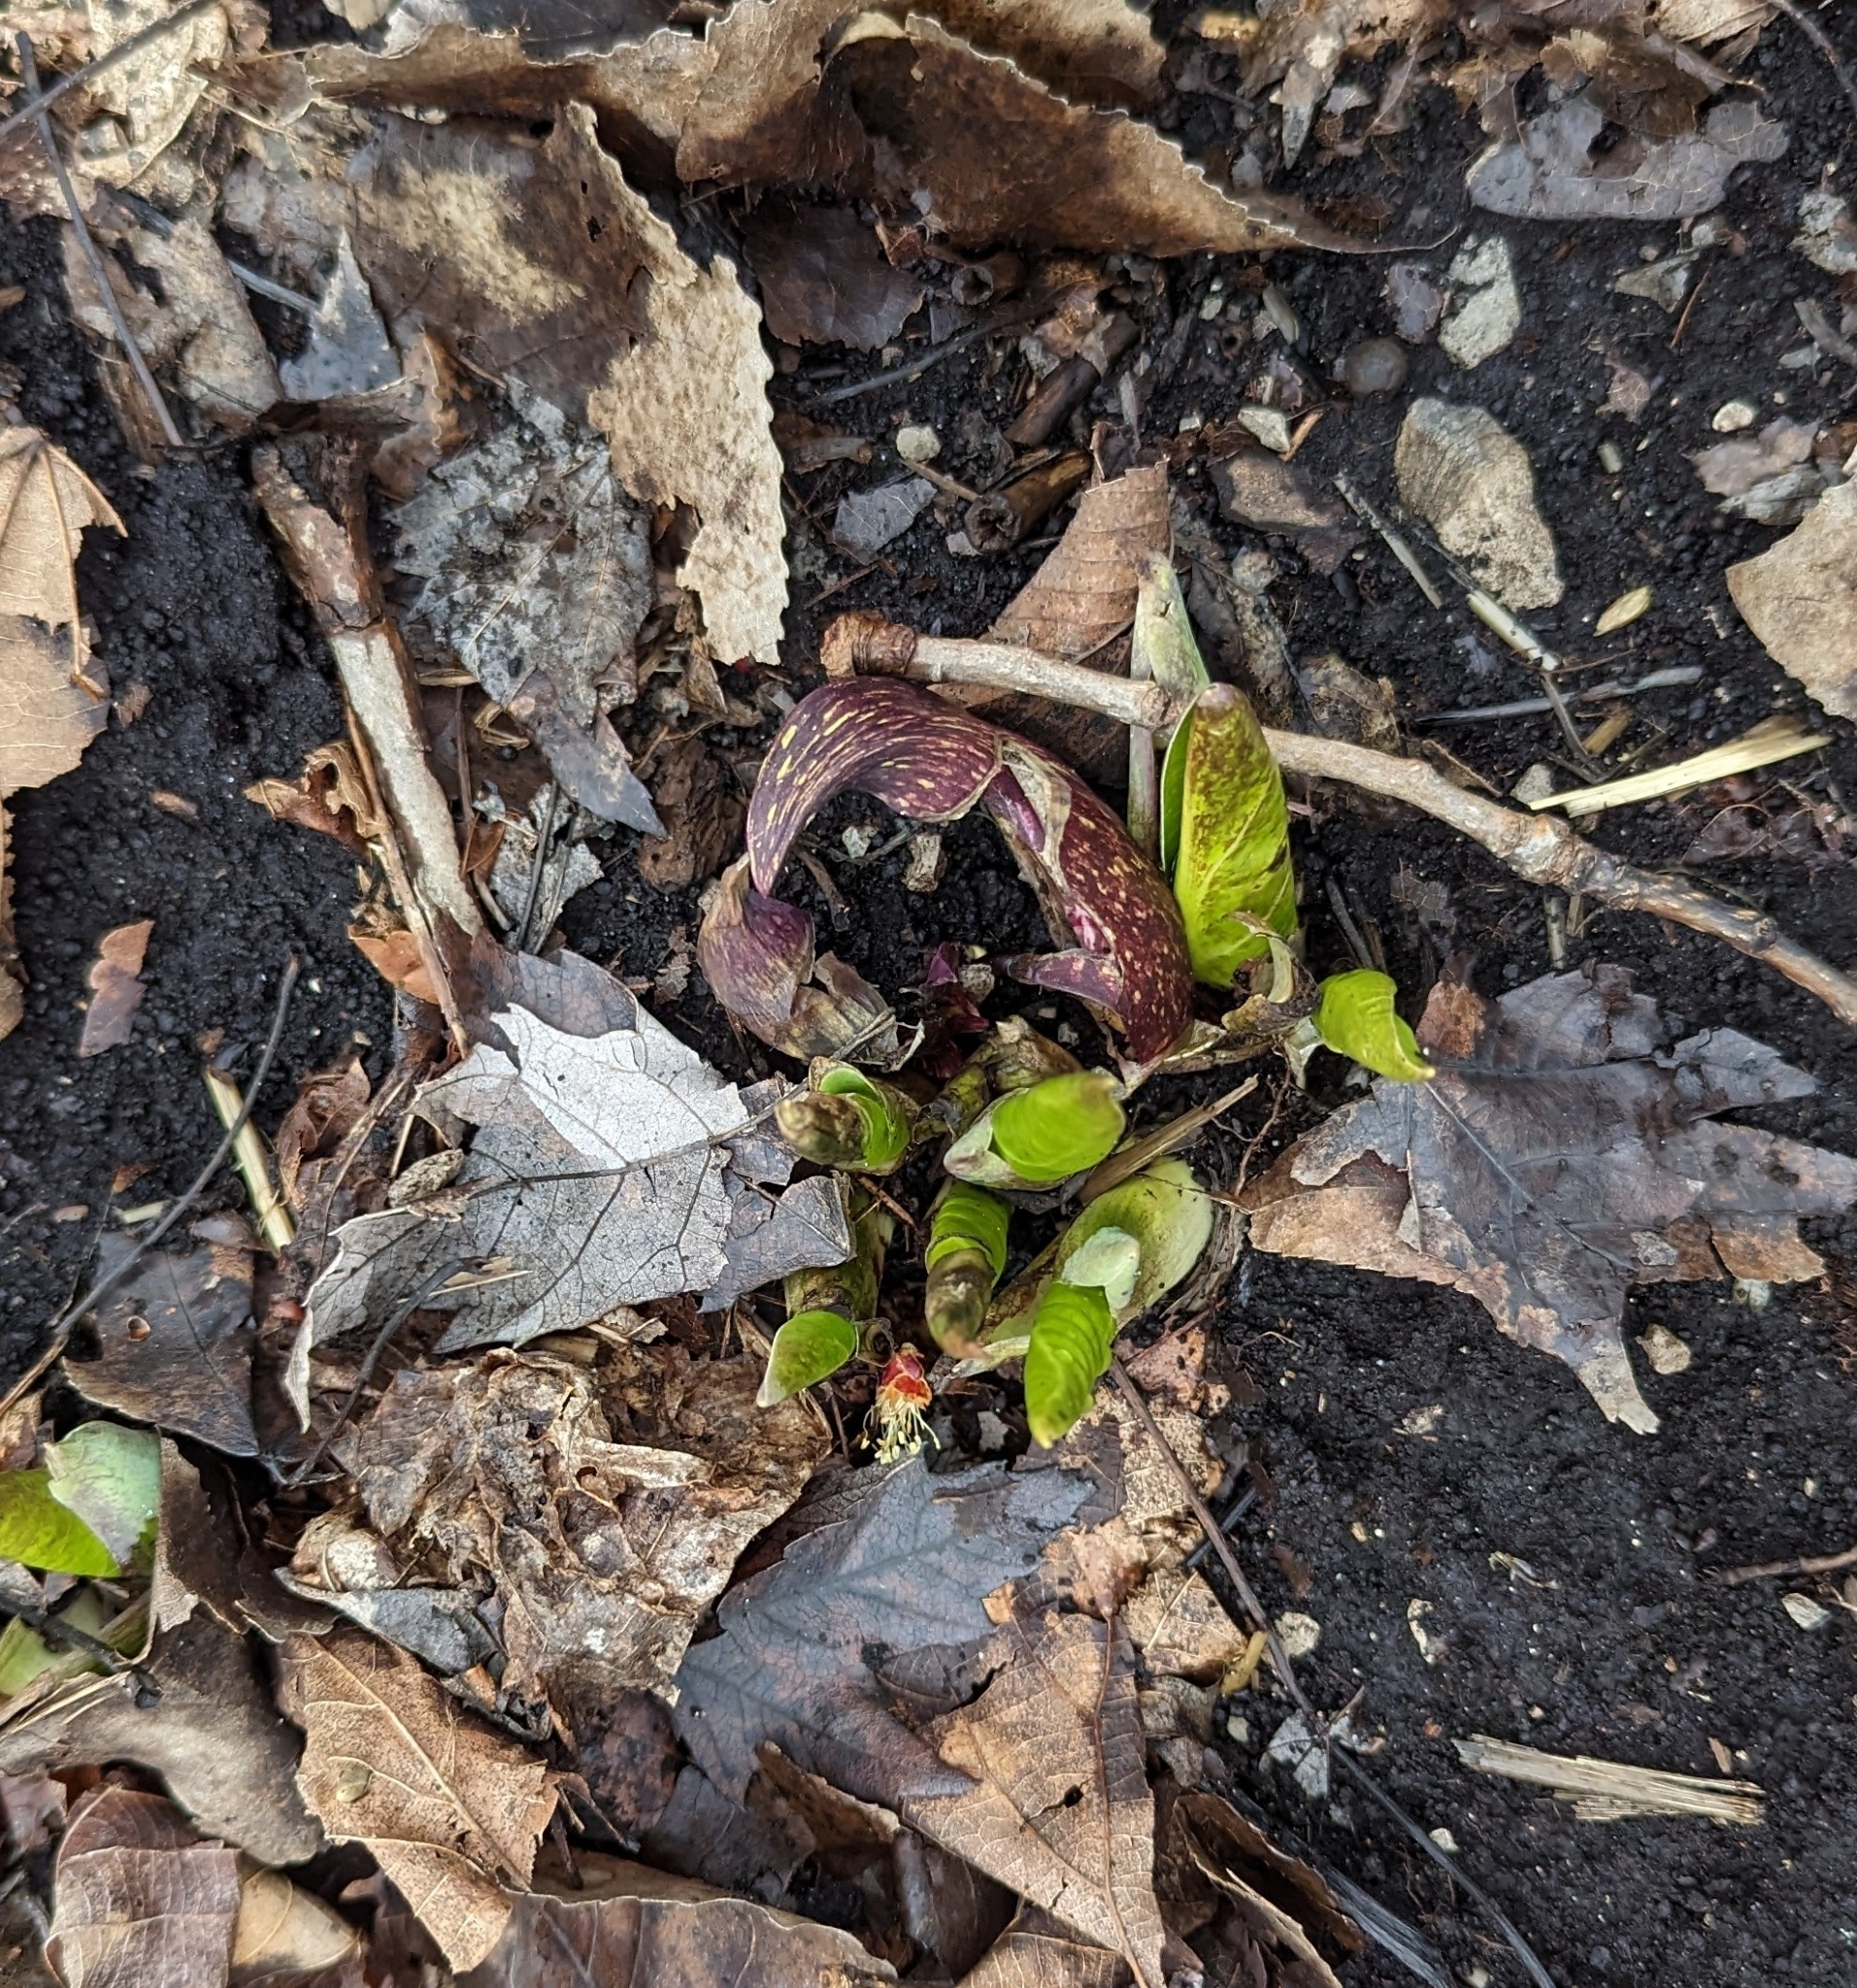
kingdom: Plantae
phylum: Tracheophyta
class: Liliopsida
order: Alismatales
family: Araceae
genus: Symplocarpus
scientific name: Symplocarpus foetidus
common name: Eastern skunk cabbage
